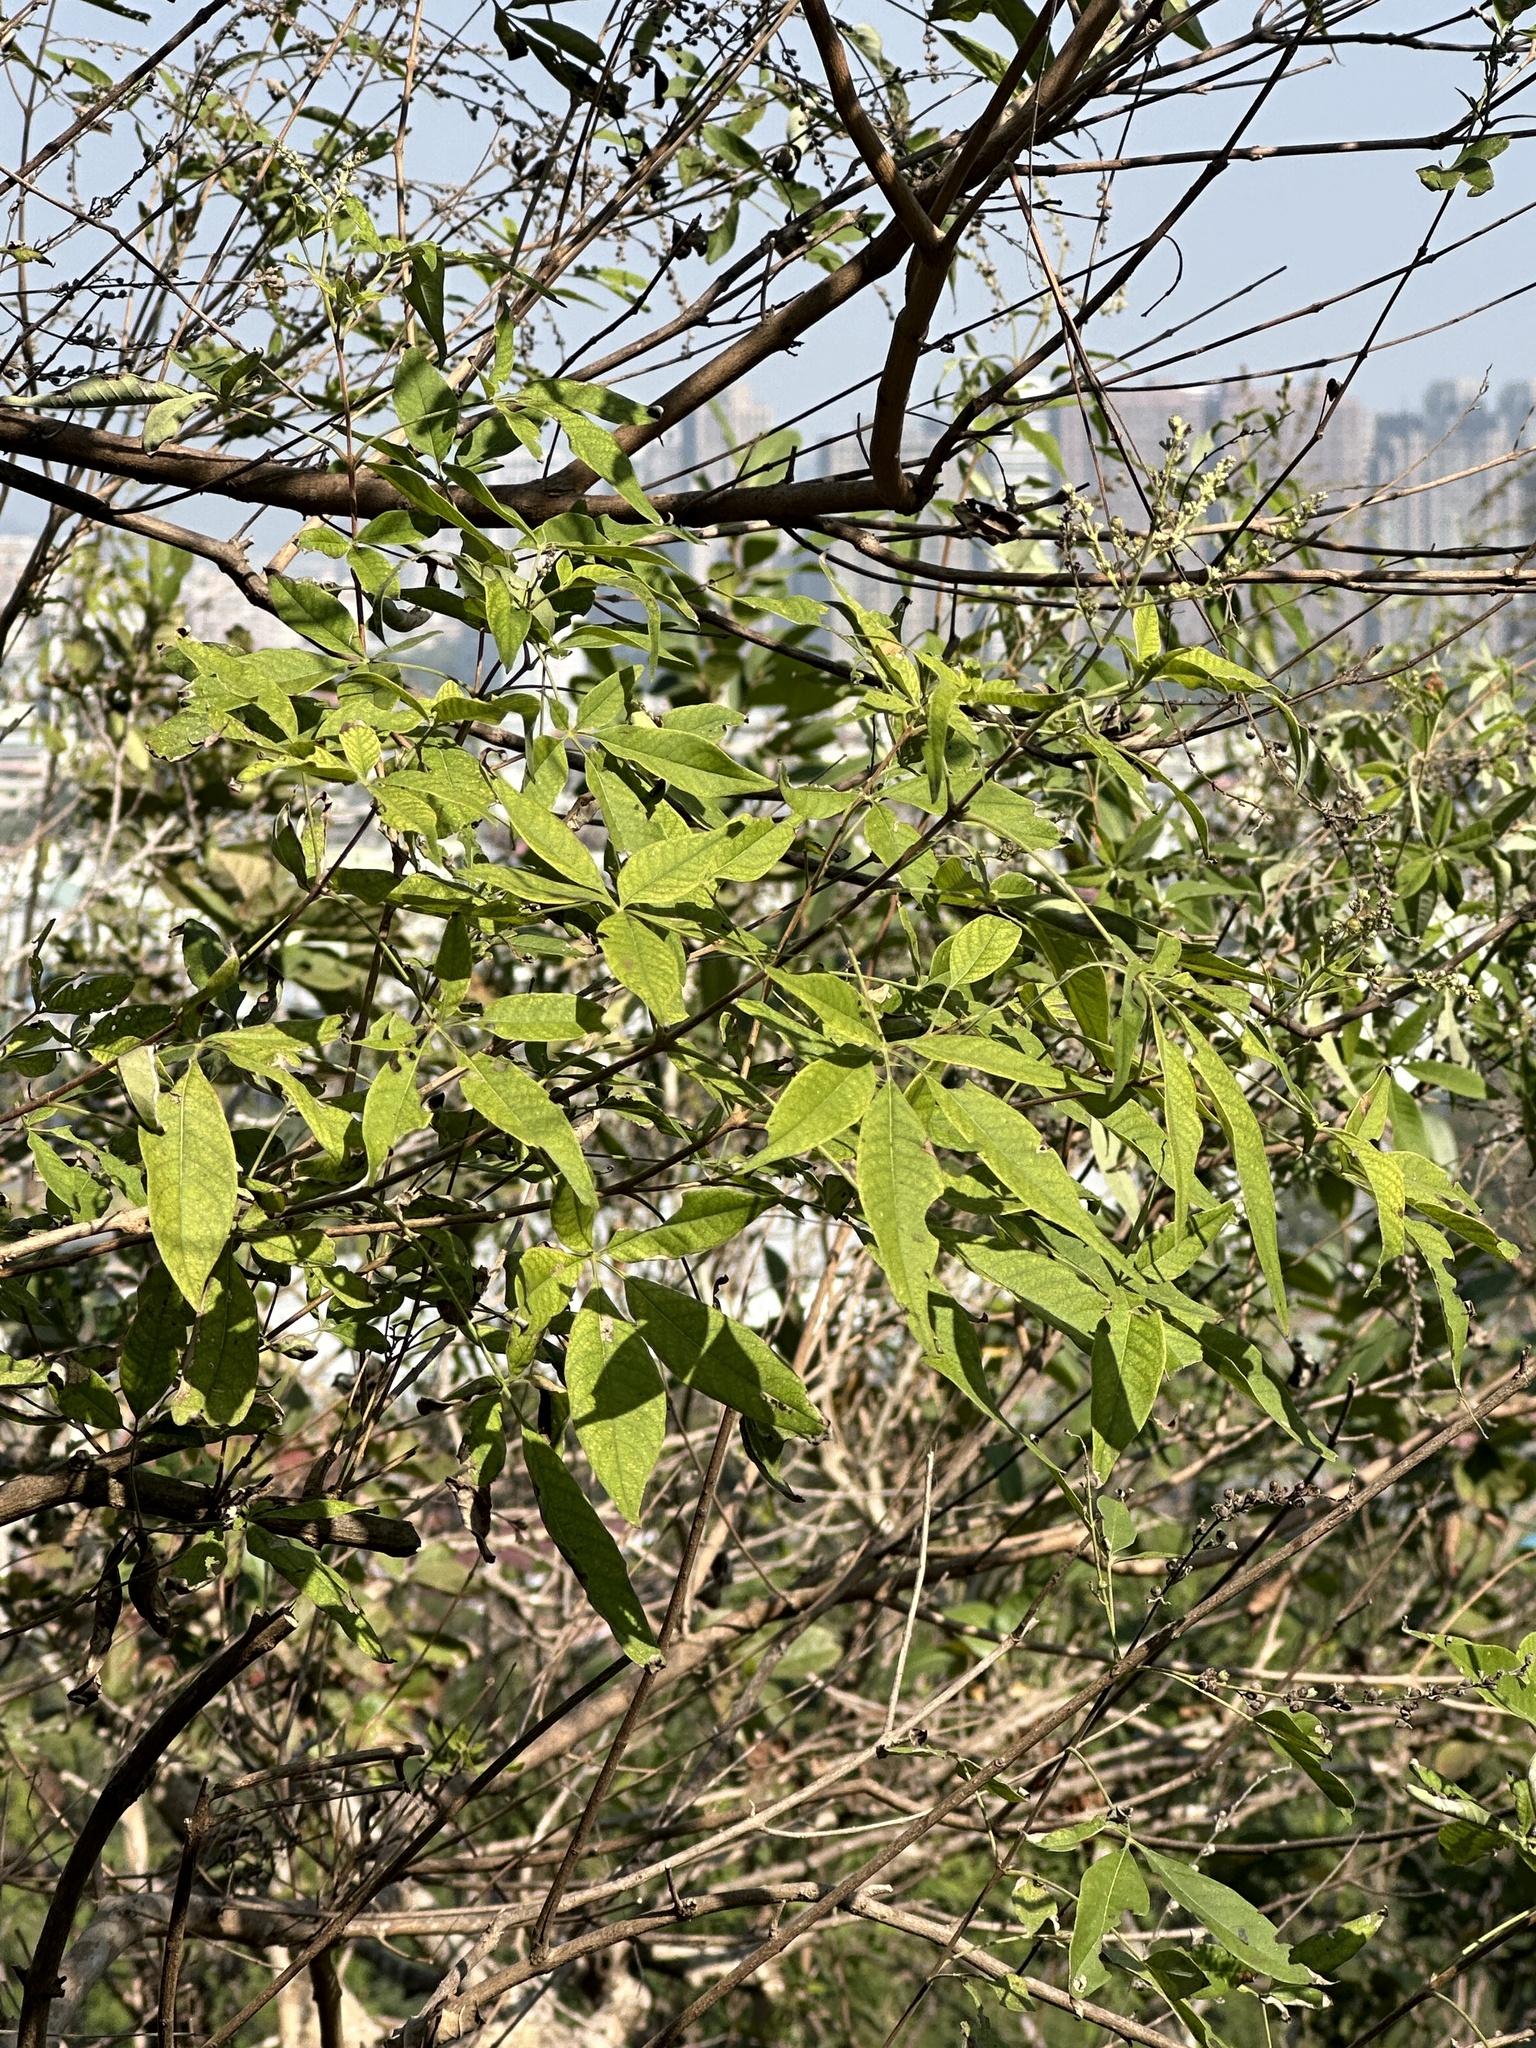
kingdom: Plantae
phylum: Tracheophyta
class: Magnoliopsida
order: Lamiales
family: Lamiaceae
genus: Vitex
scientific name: Vitex negundo
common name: Chinese chastetree
